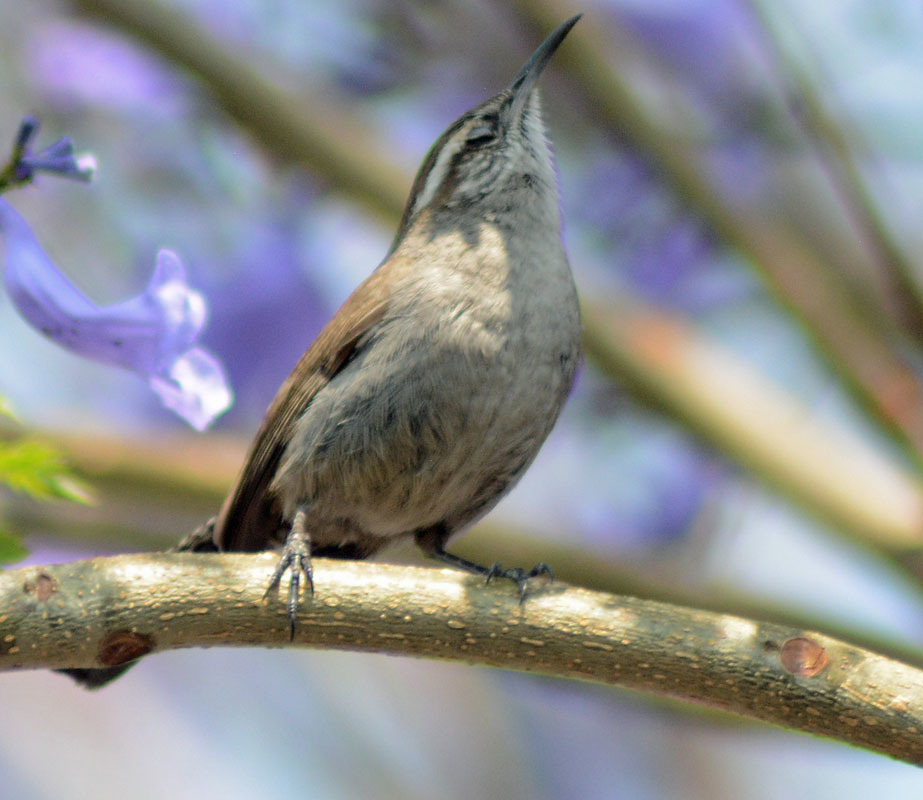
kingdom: Animalia
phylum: Chordata
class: Aves
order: Passeriformes
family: Troglodytidae
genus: Thryomanes
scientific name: Thryomanes bewickii
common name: Bewick's wren
